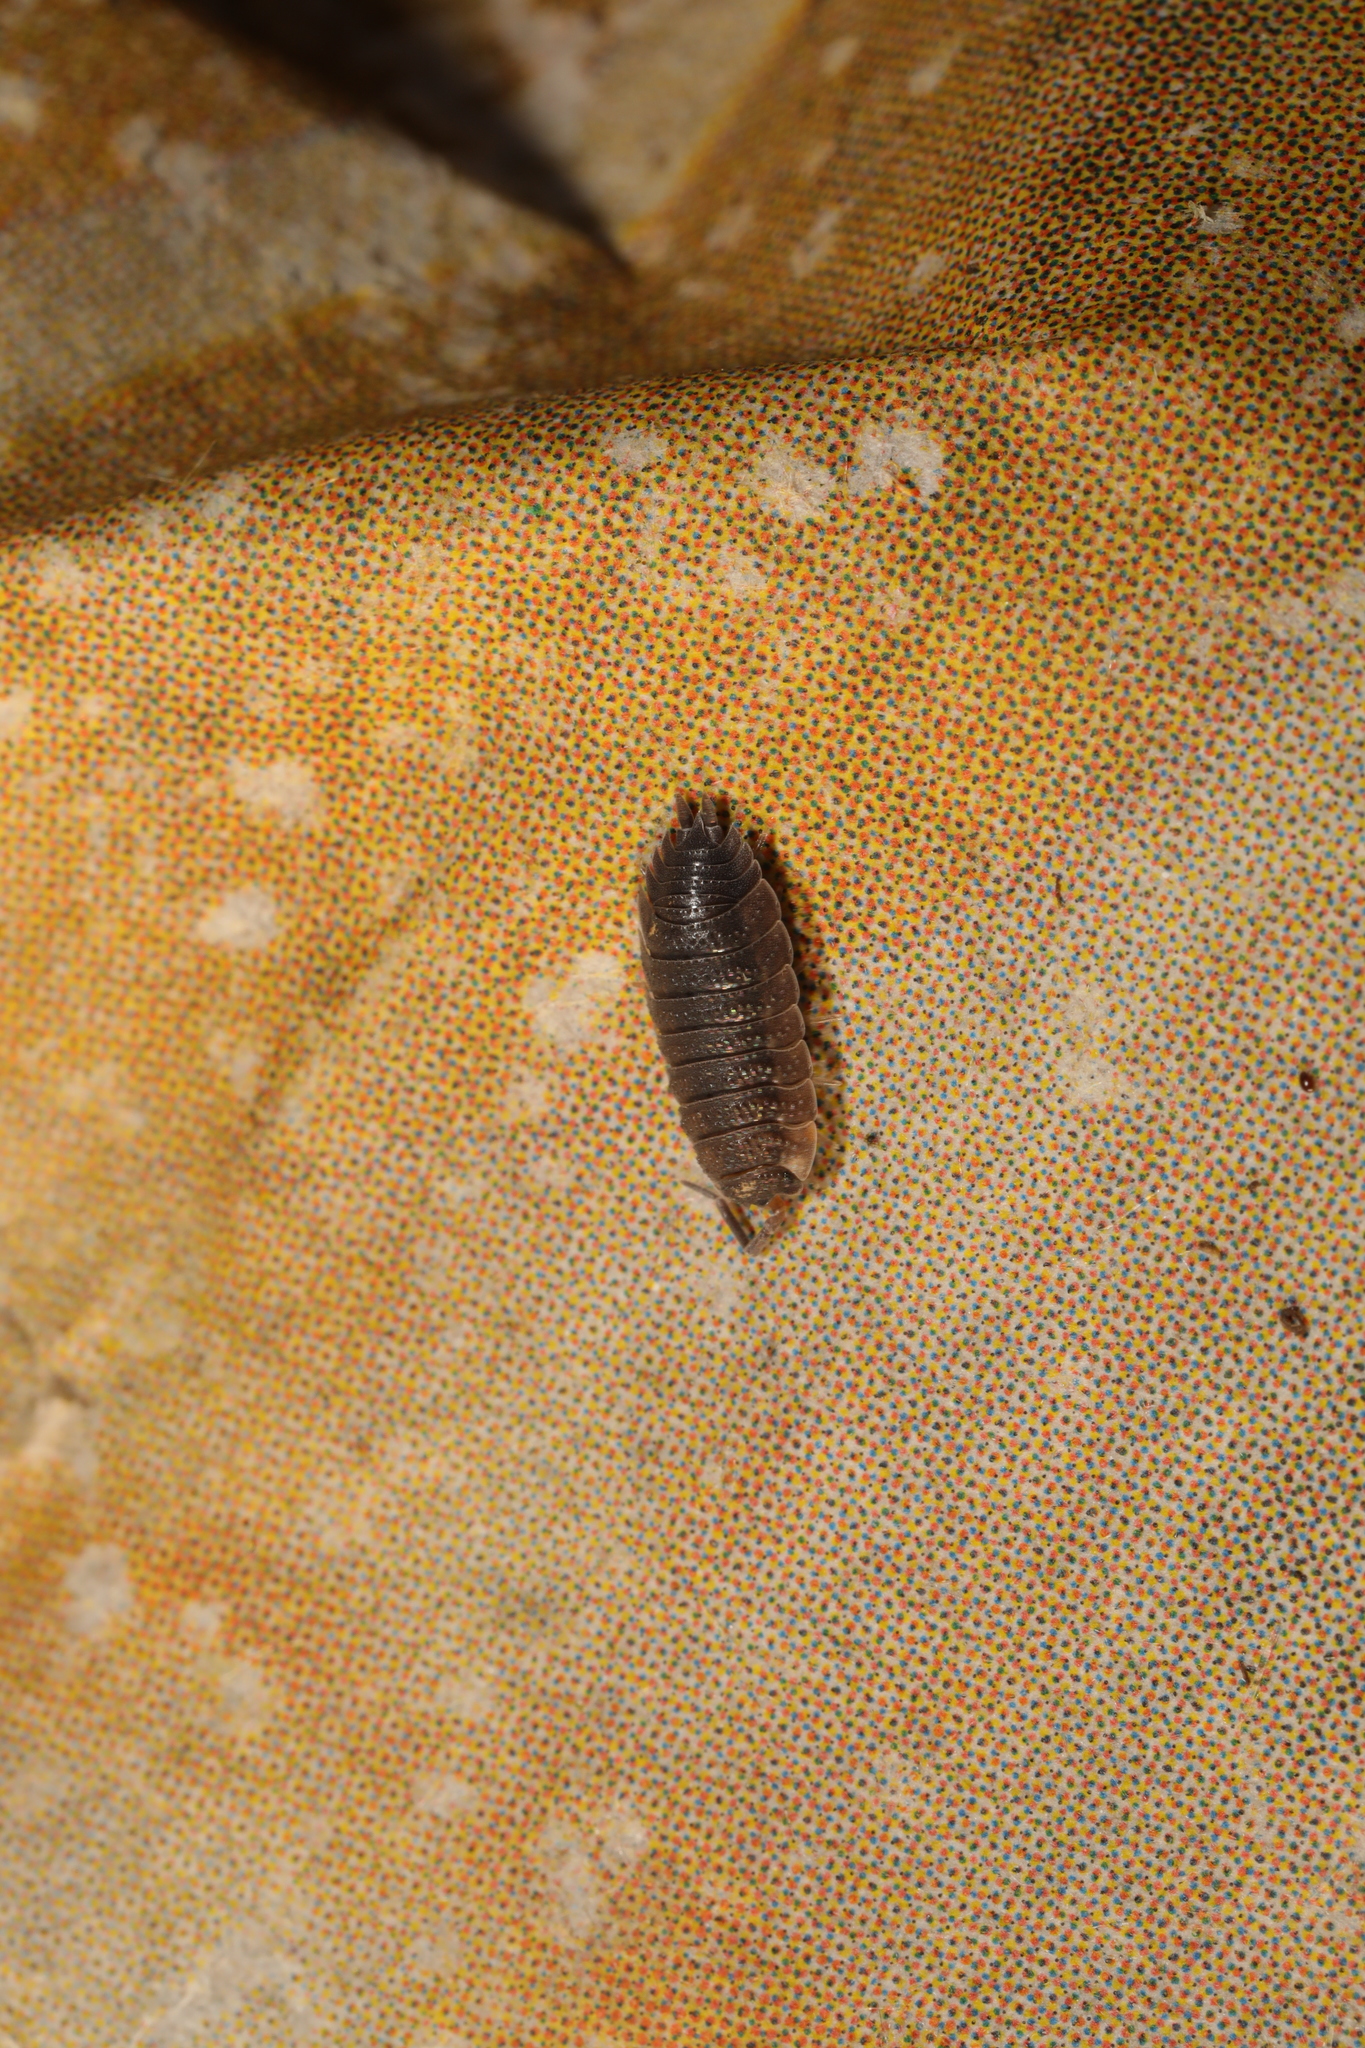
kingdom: Animalia
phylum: Arthropoda
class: Malacostraca
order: Isopoda
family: Porcellionidae
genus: Porcellio
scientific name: Porcellio scaber
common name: Common rough woodlouse
